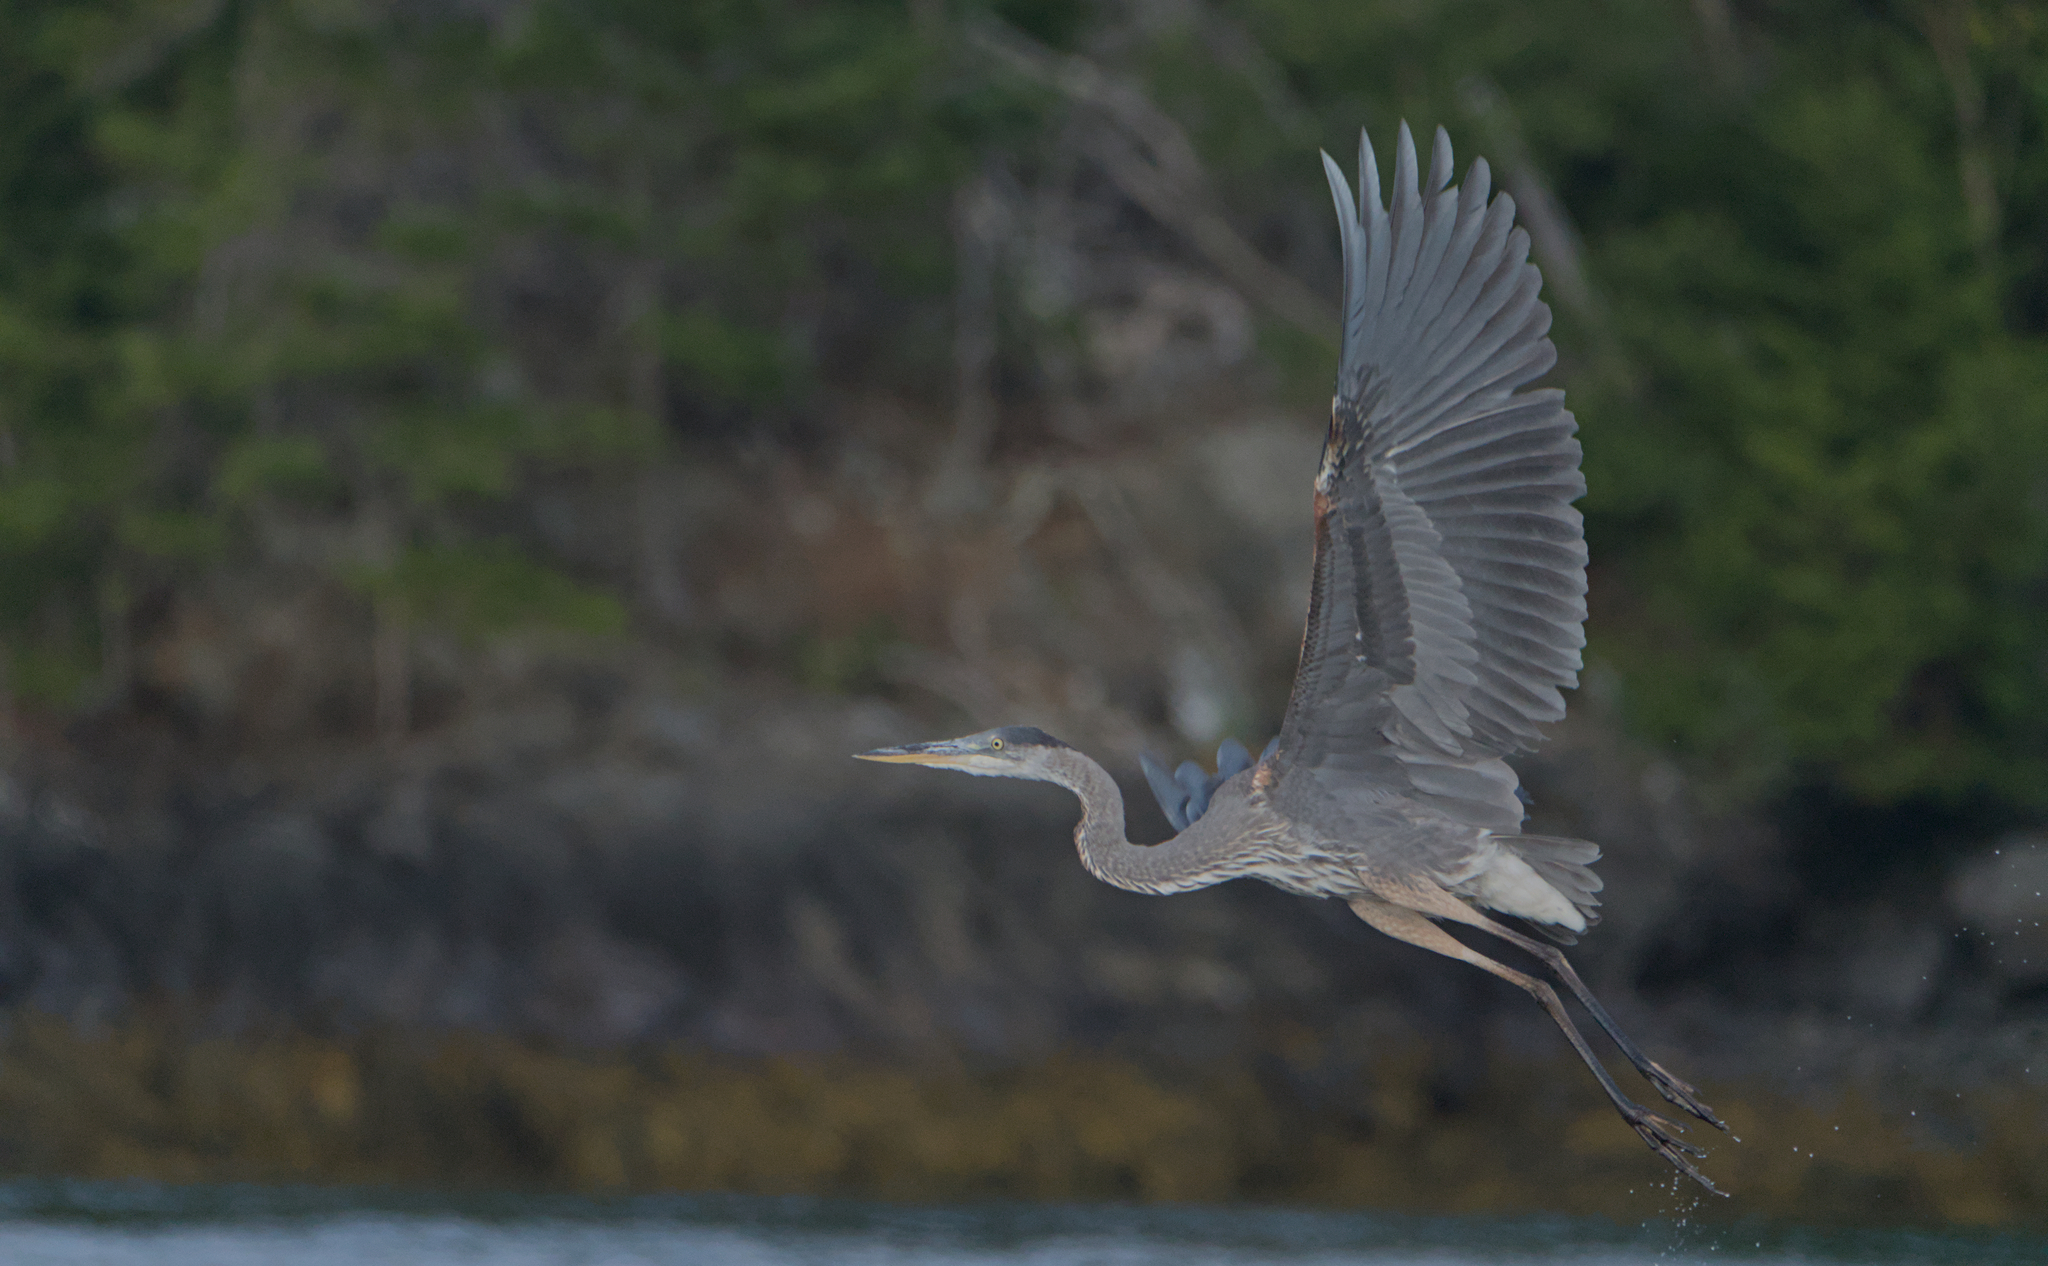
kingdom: Animalia
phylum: Chordata
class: Aves
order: Pelecaniformes
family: Ardeidae
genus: Ardea
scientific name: Ardea herodias
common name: Great blue heron
